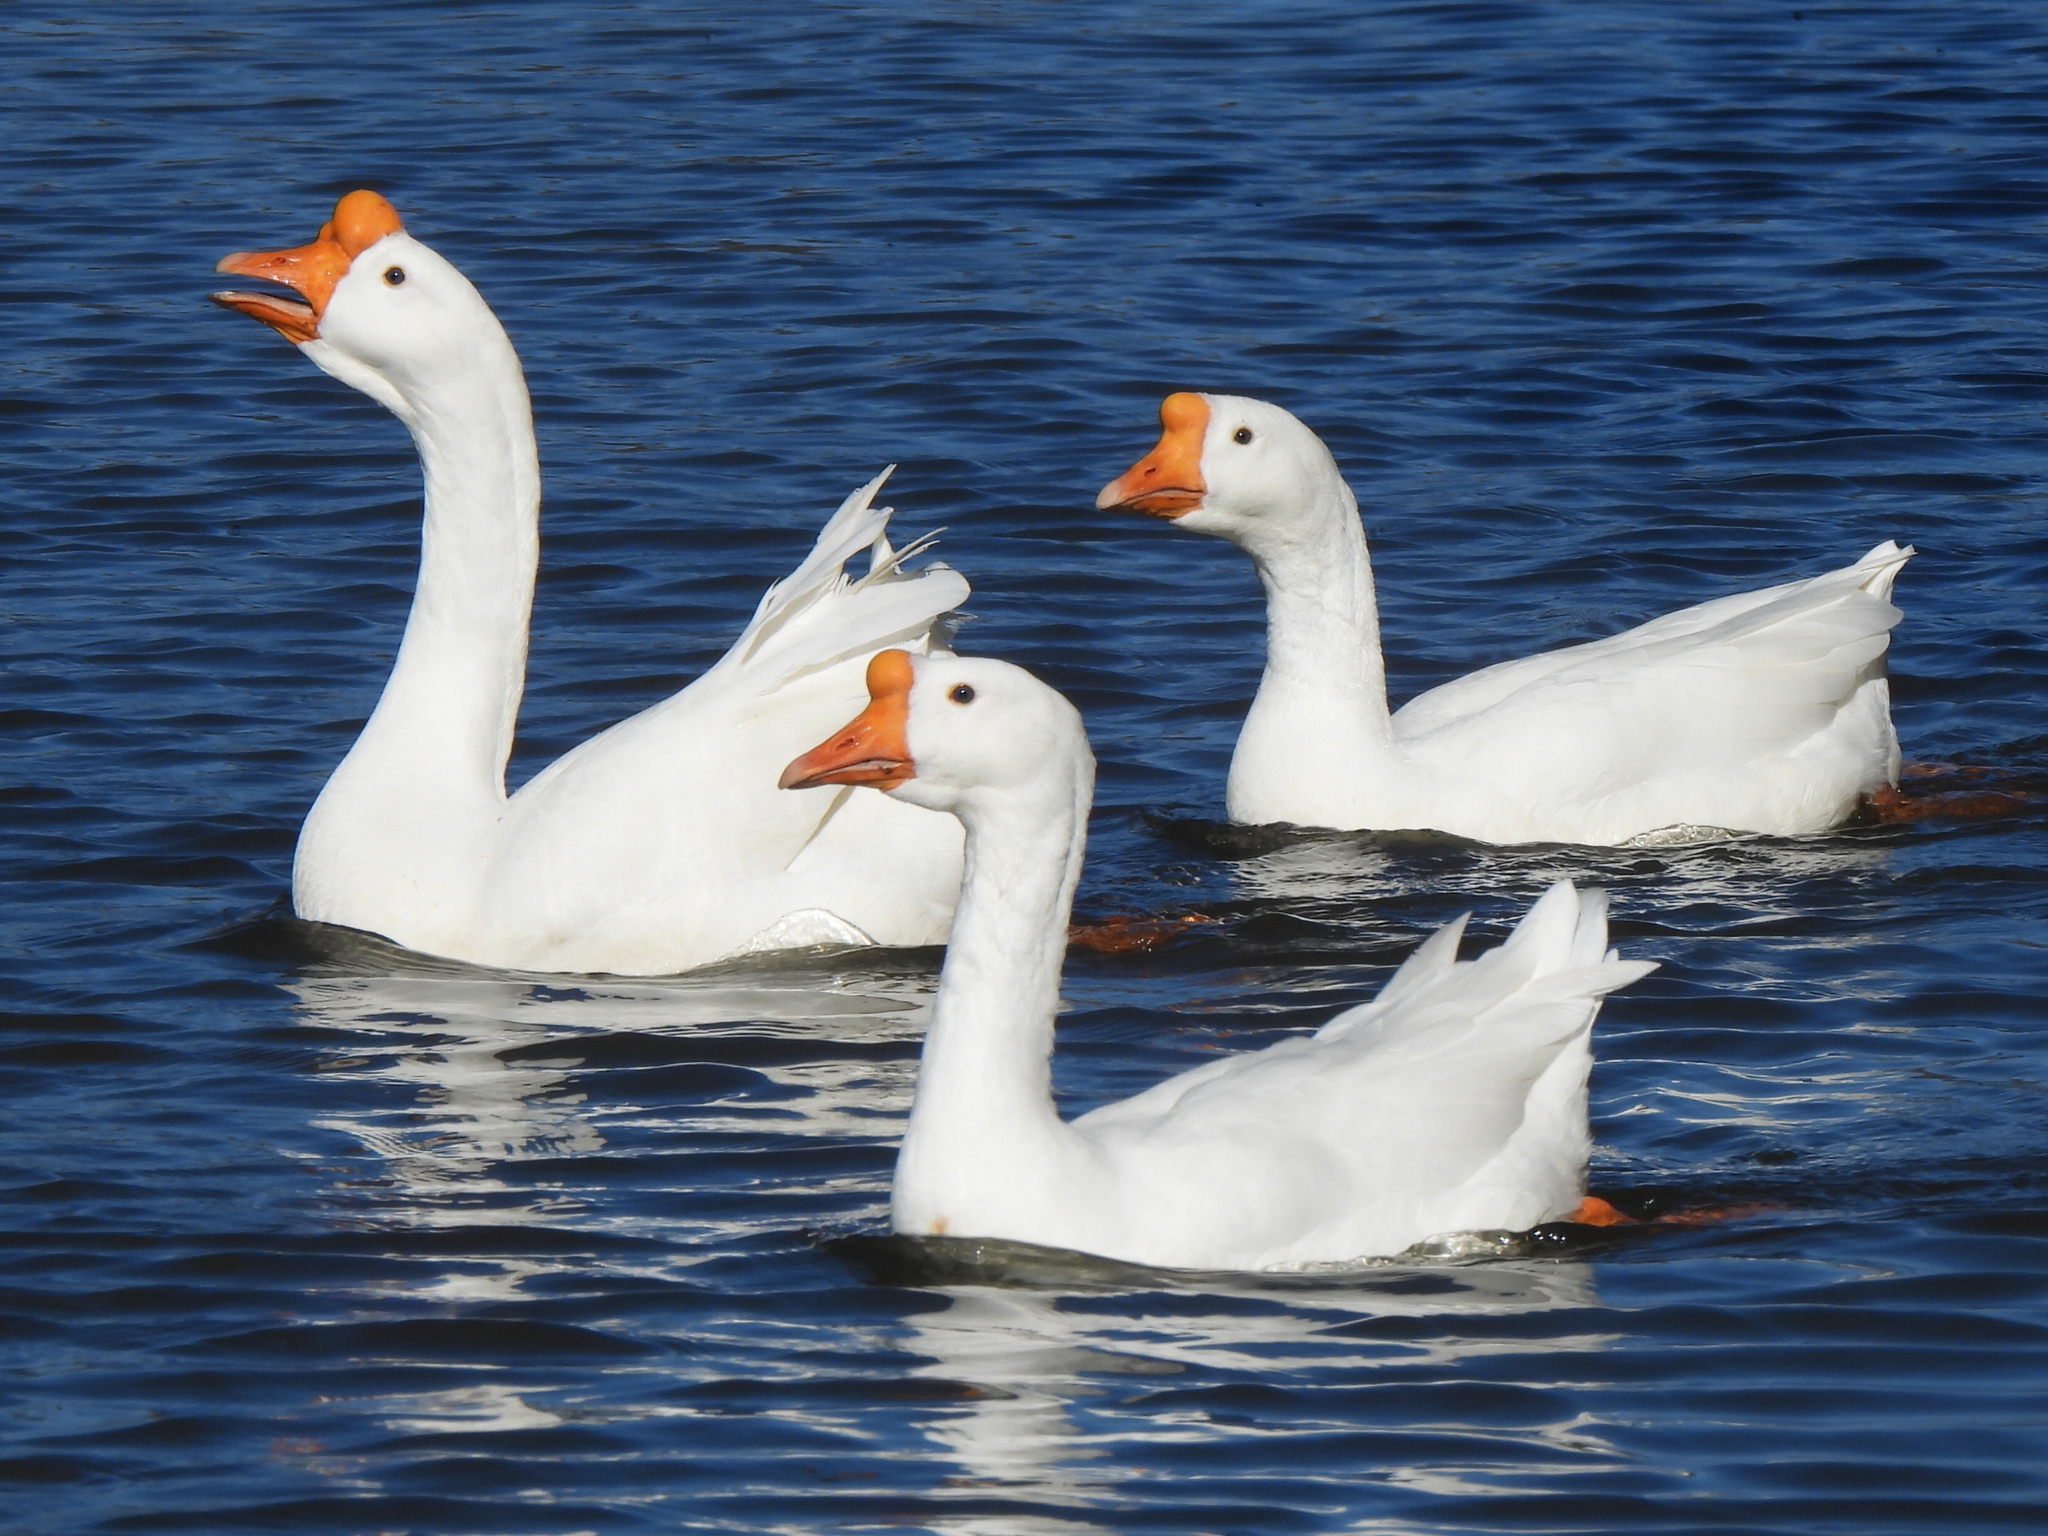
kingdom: Animalia
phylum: Chordata
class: Aves
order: Anseriformes
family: Anatidae
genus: Anser
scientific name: Anser cygnoides
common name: Swan goose
